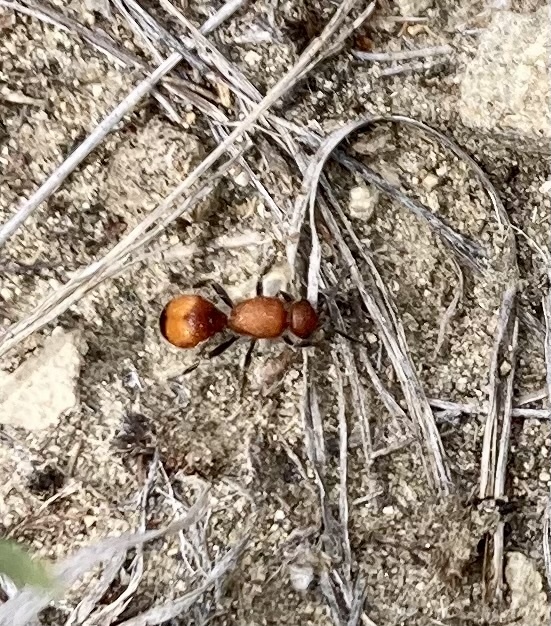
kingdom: Animalia
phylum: Arthropoda
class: Insecta
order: Hymenoptera
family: Mutillidae
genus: Dasymutilla
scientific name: Dasymutilla
